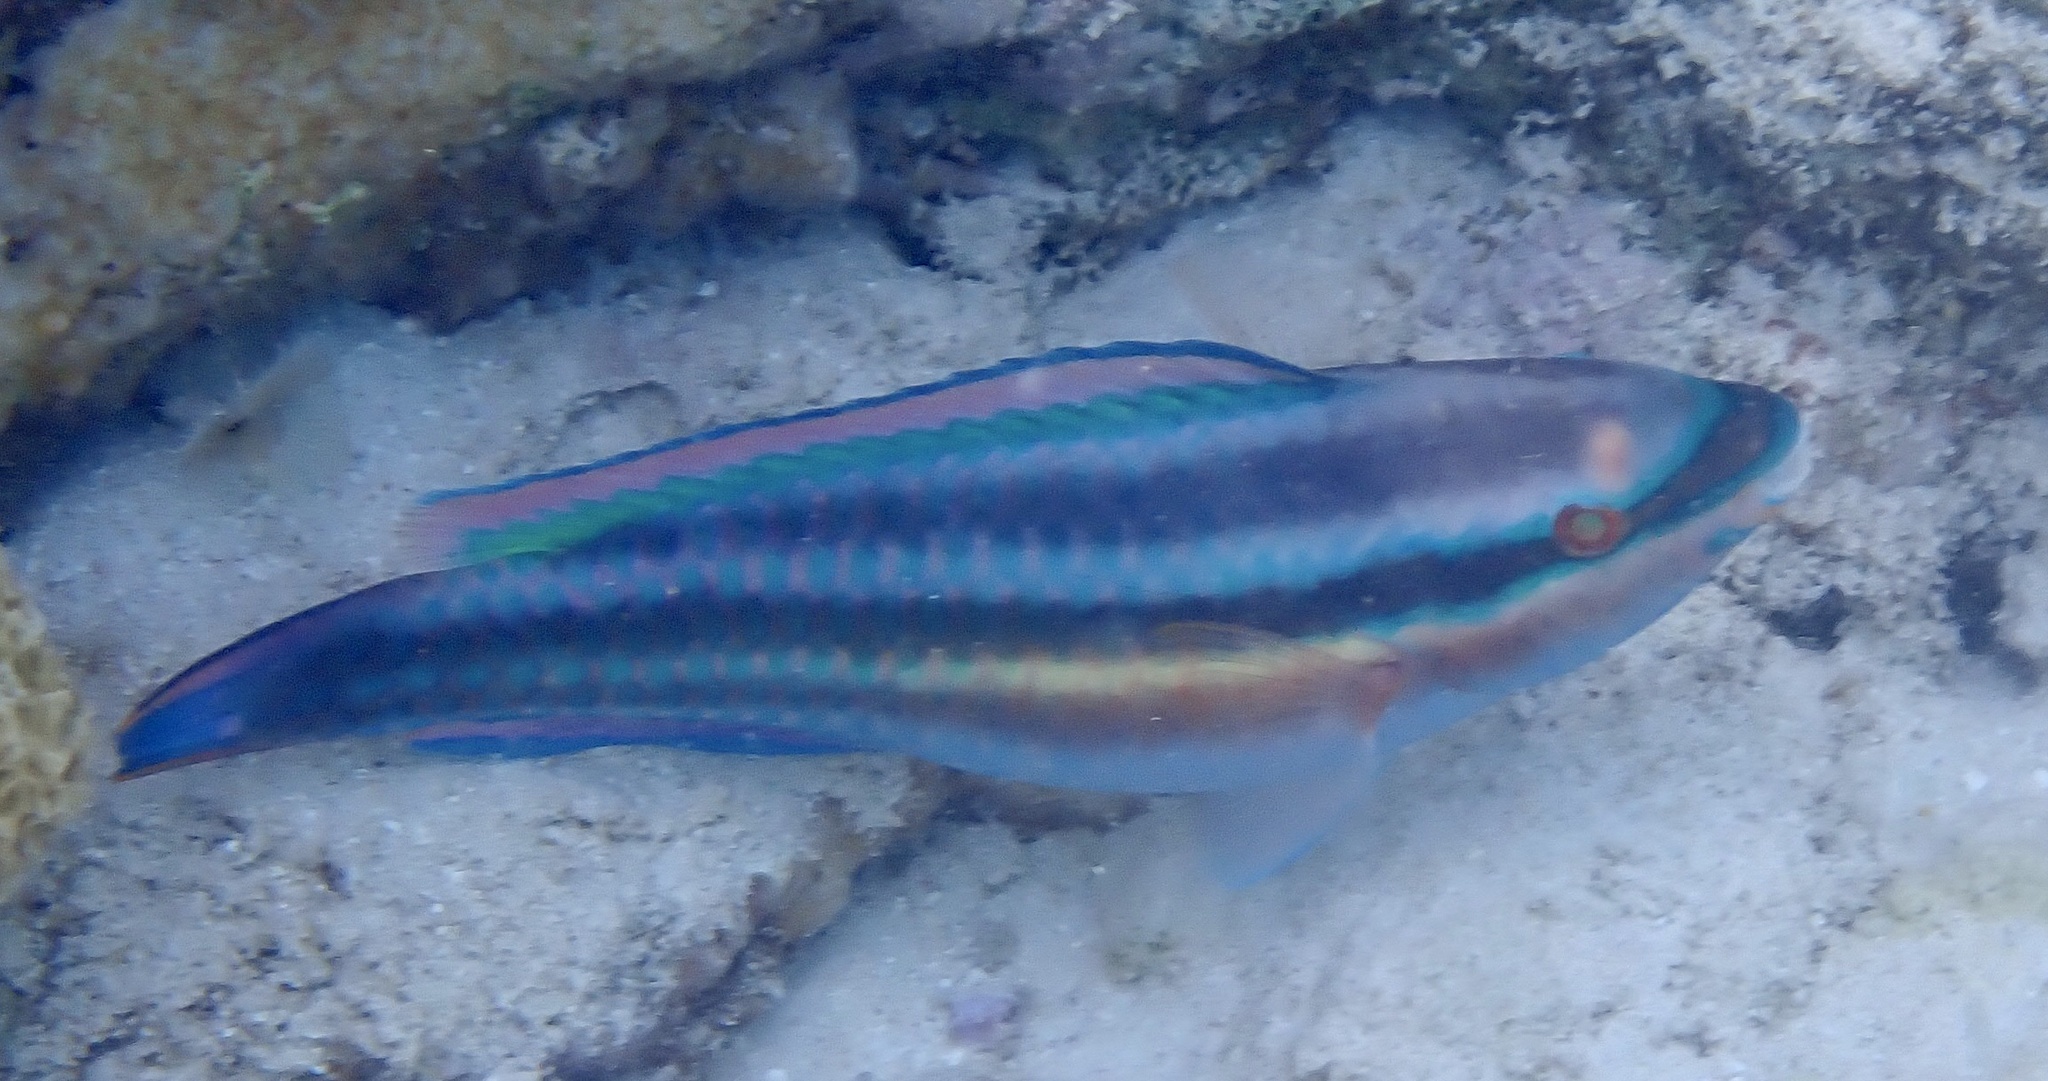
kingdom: Animalia
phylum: Chordata
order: Perciformes
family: Scaridae
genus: Scarus
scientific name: Scarus taeniopterus
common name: Princess parrotfish
